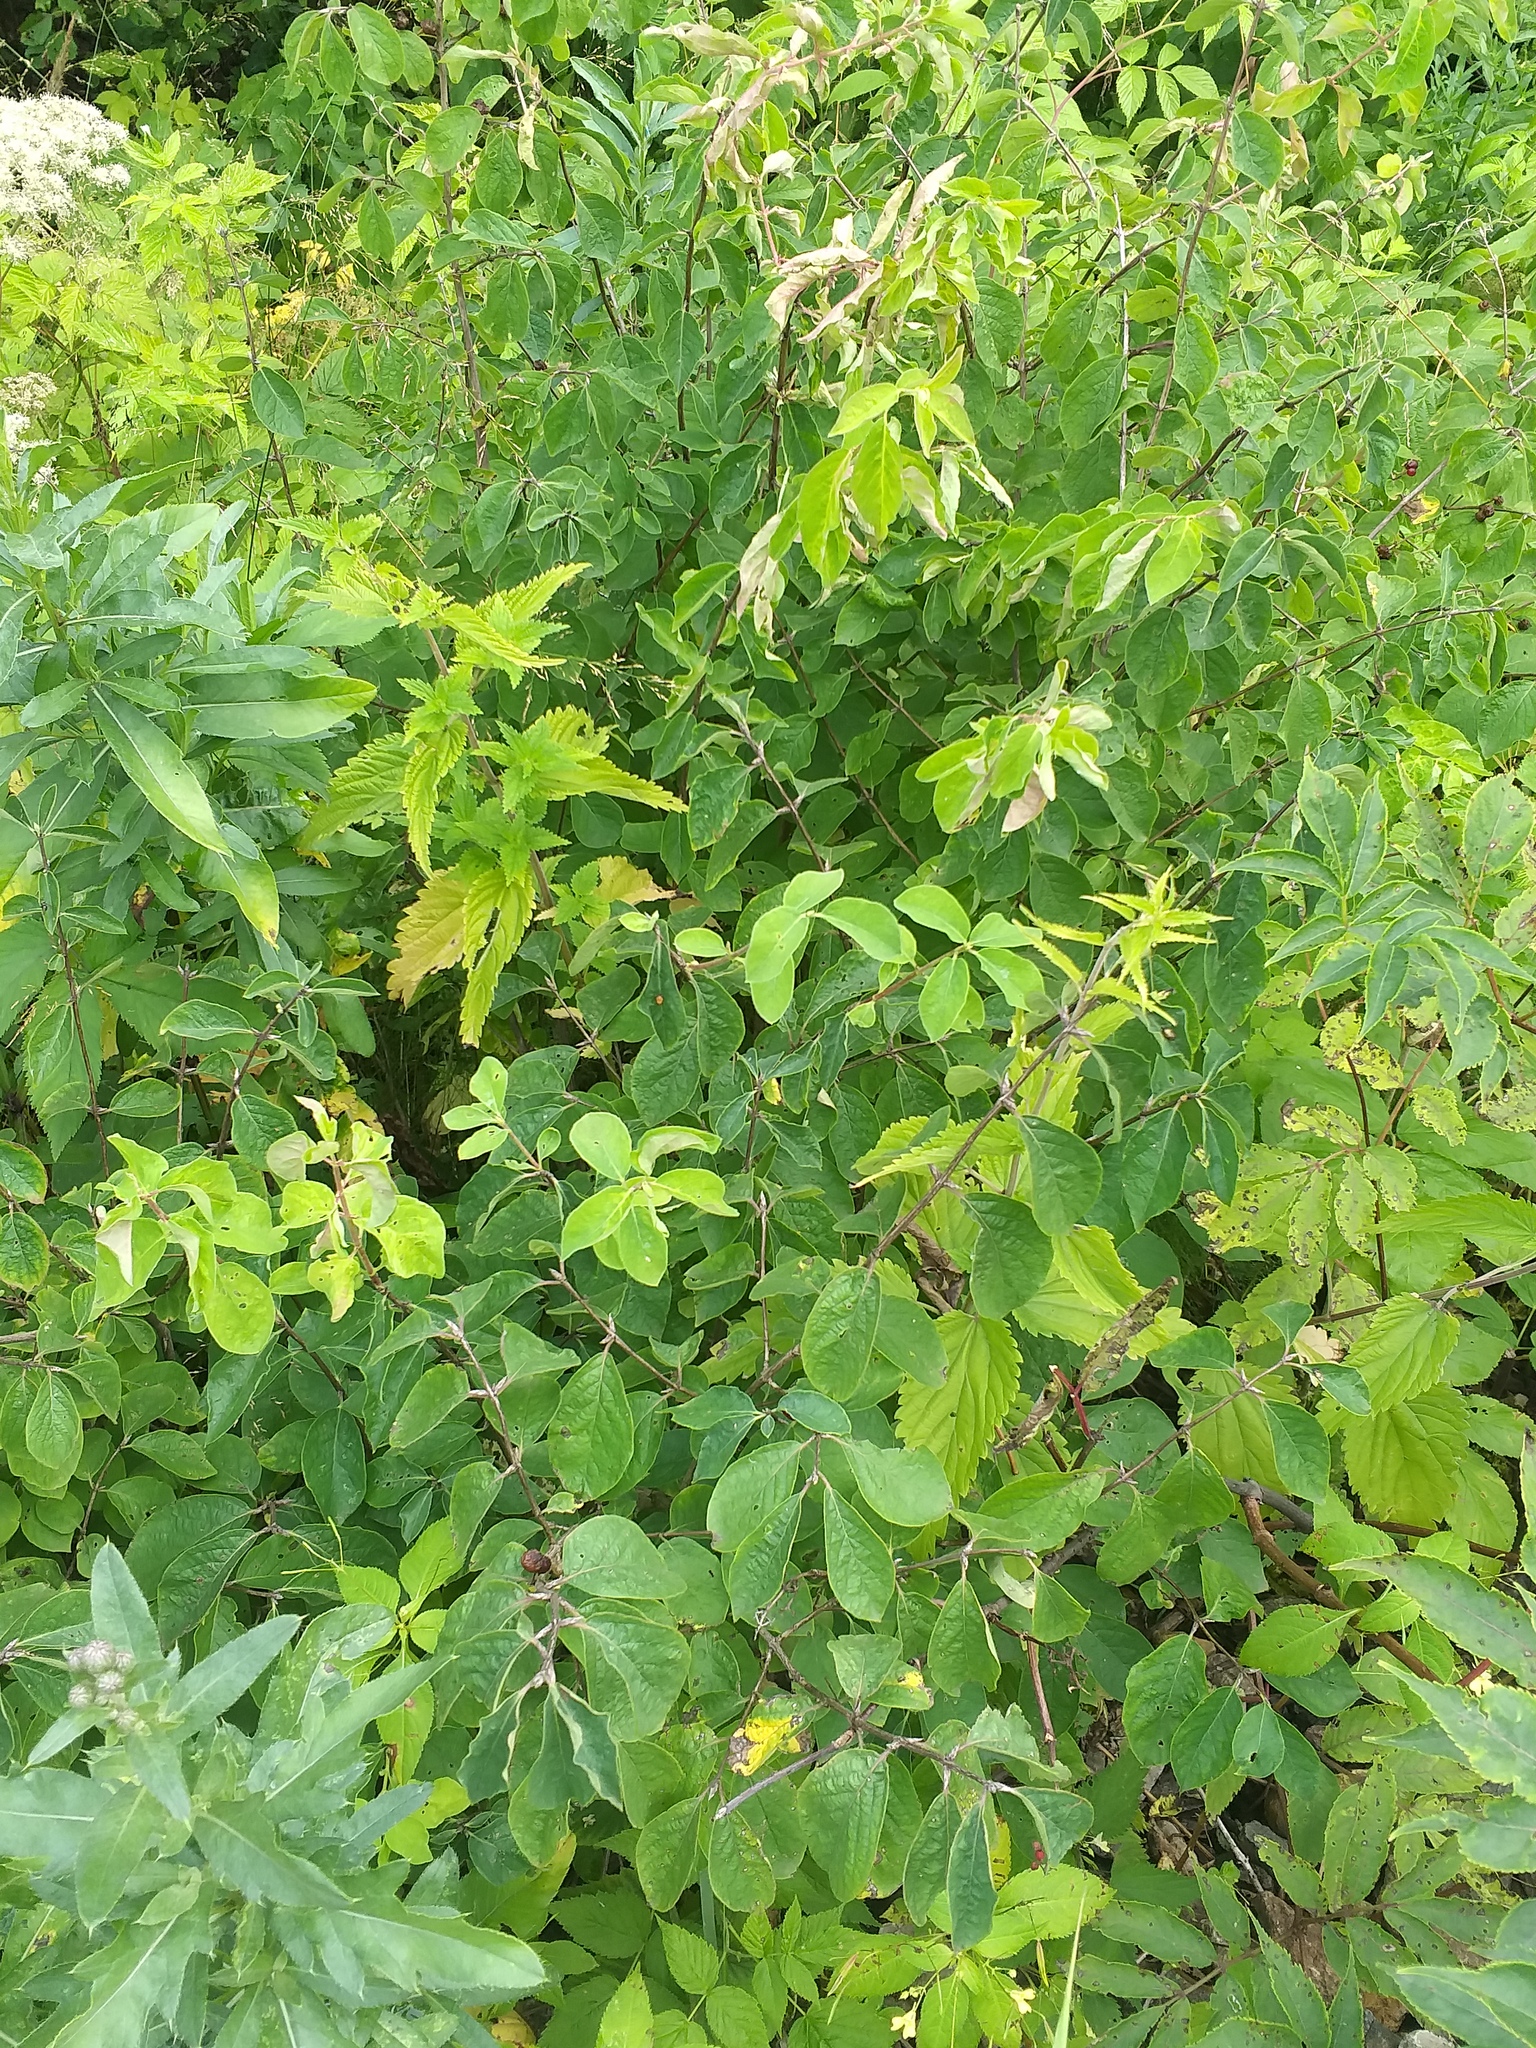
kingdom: Plantae
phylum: Tracheophyta
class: Magnoliopsida
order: Dipsacales
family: Caprifoliaceae
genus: Lonicera
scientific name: Lonicera xylosteum
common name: Fly honeysuckle
